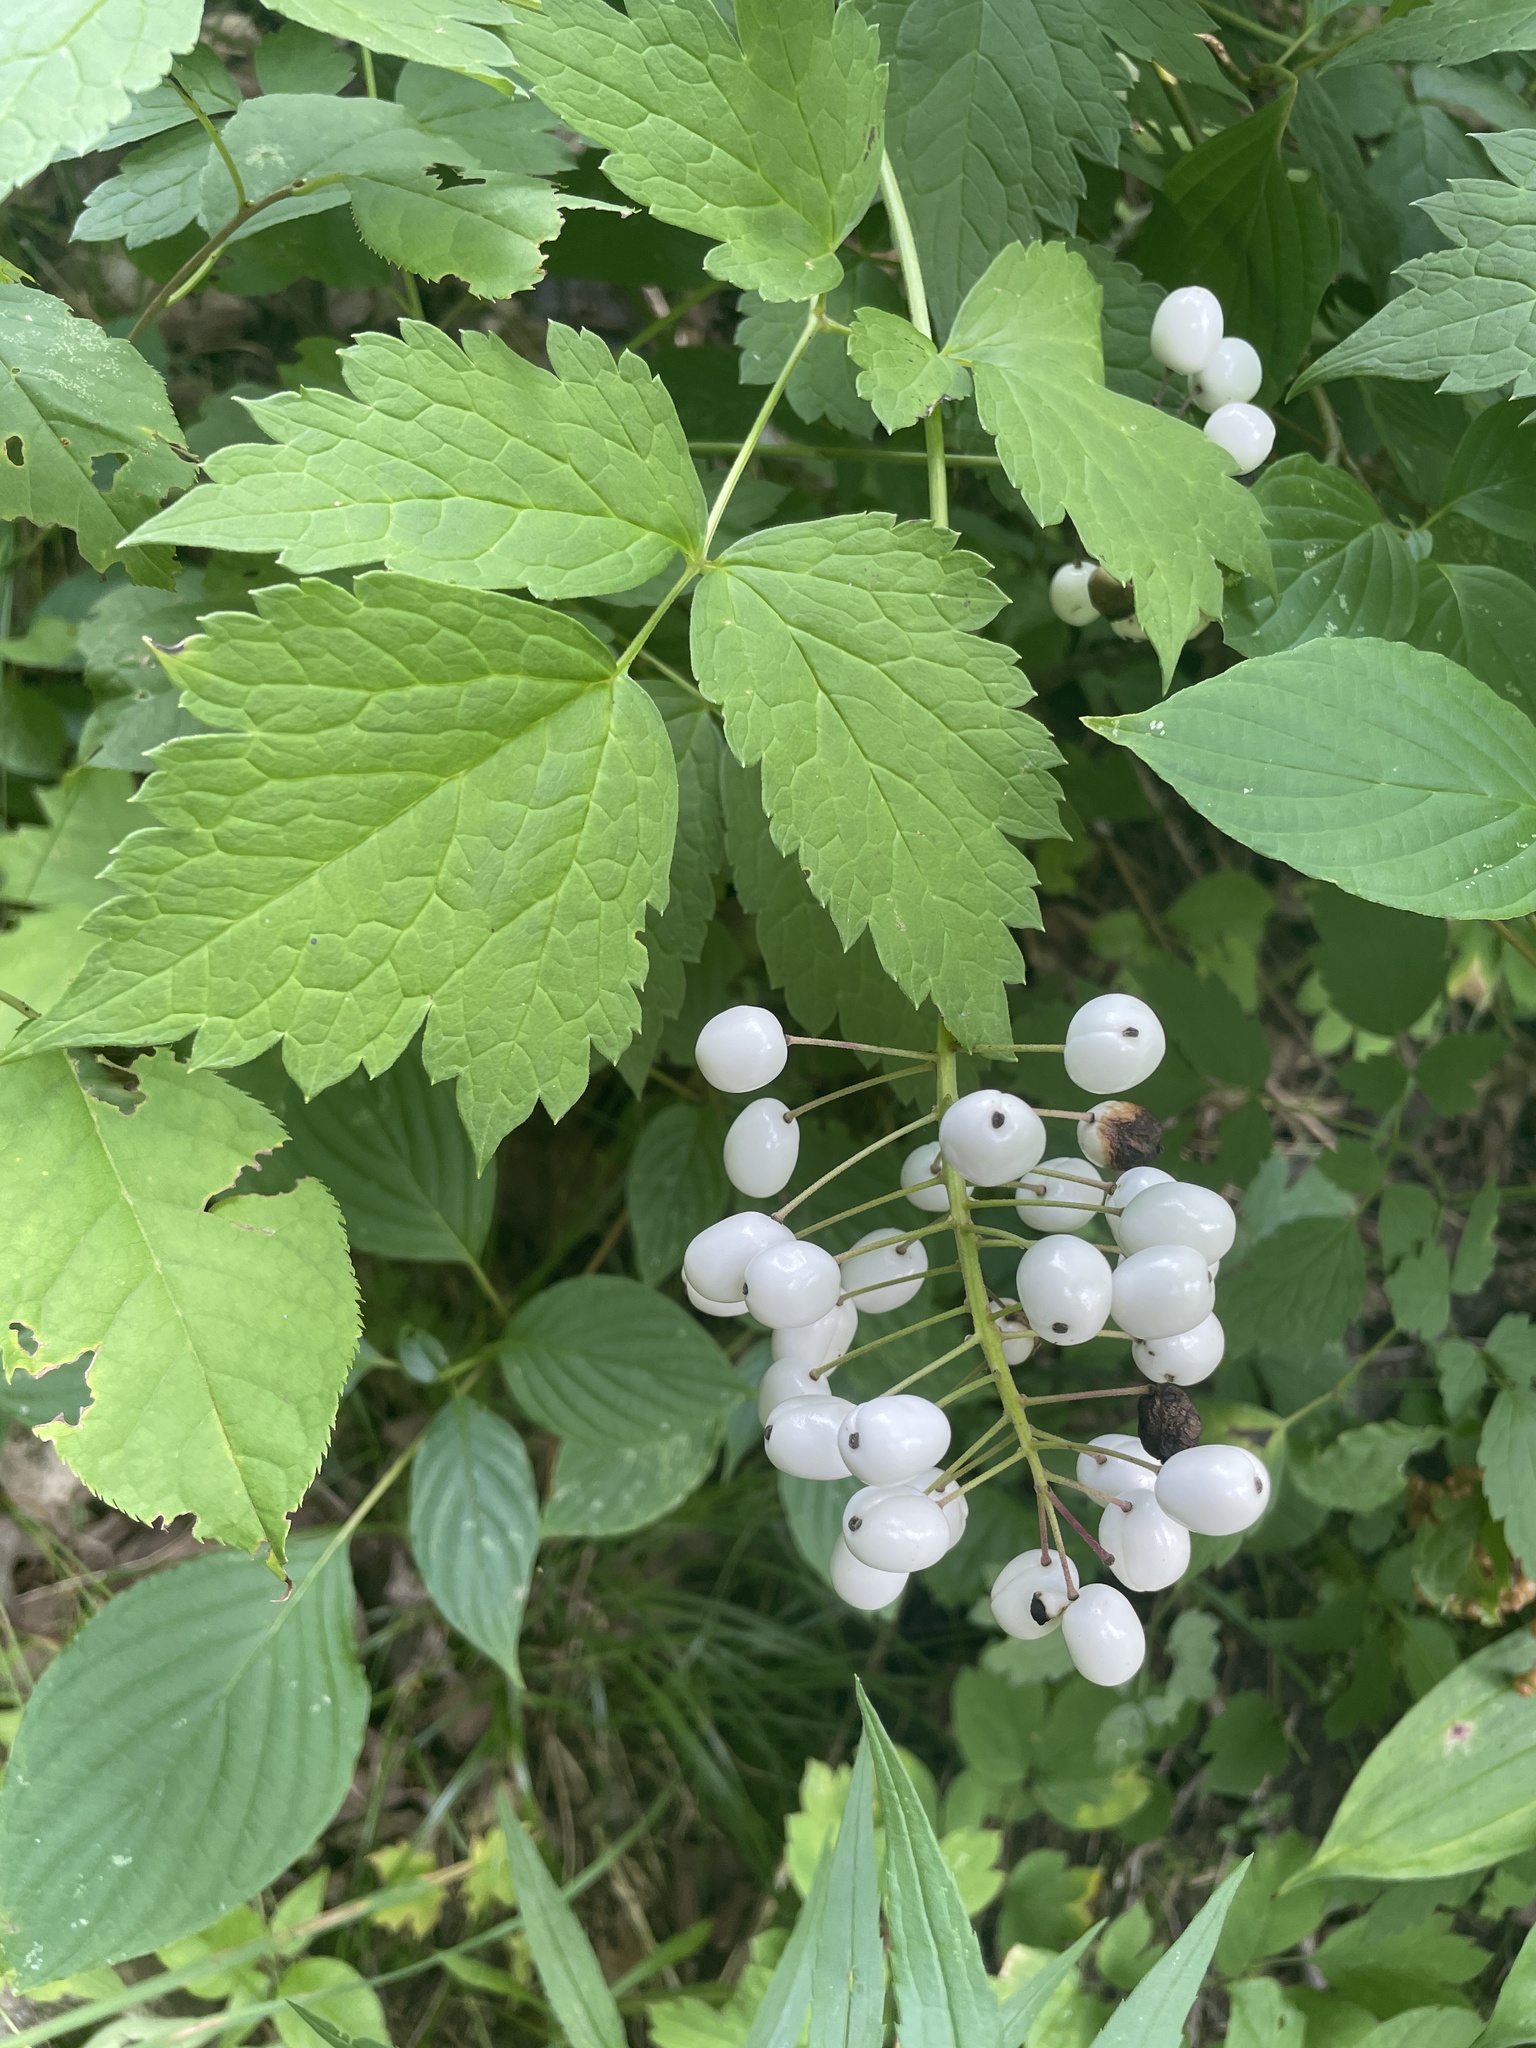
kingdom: Plantae
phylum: Tracheophyta
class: Magnoliopsida
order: Ranunculales
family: Ranunculaceae
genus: Actaea
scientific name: Actaea rubra
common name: Red baneberry
